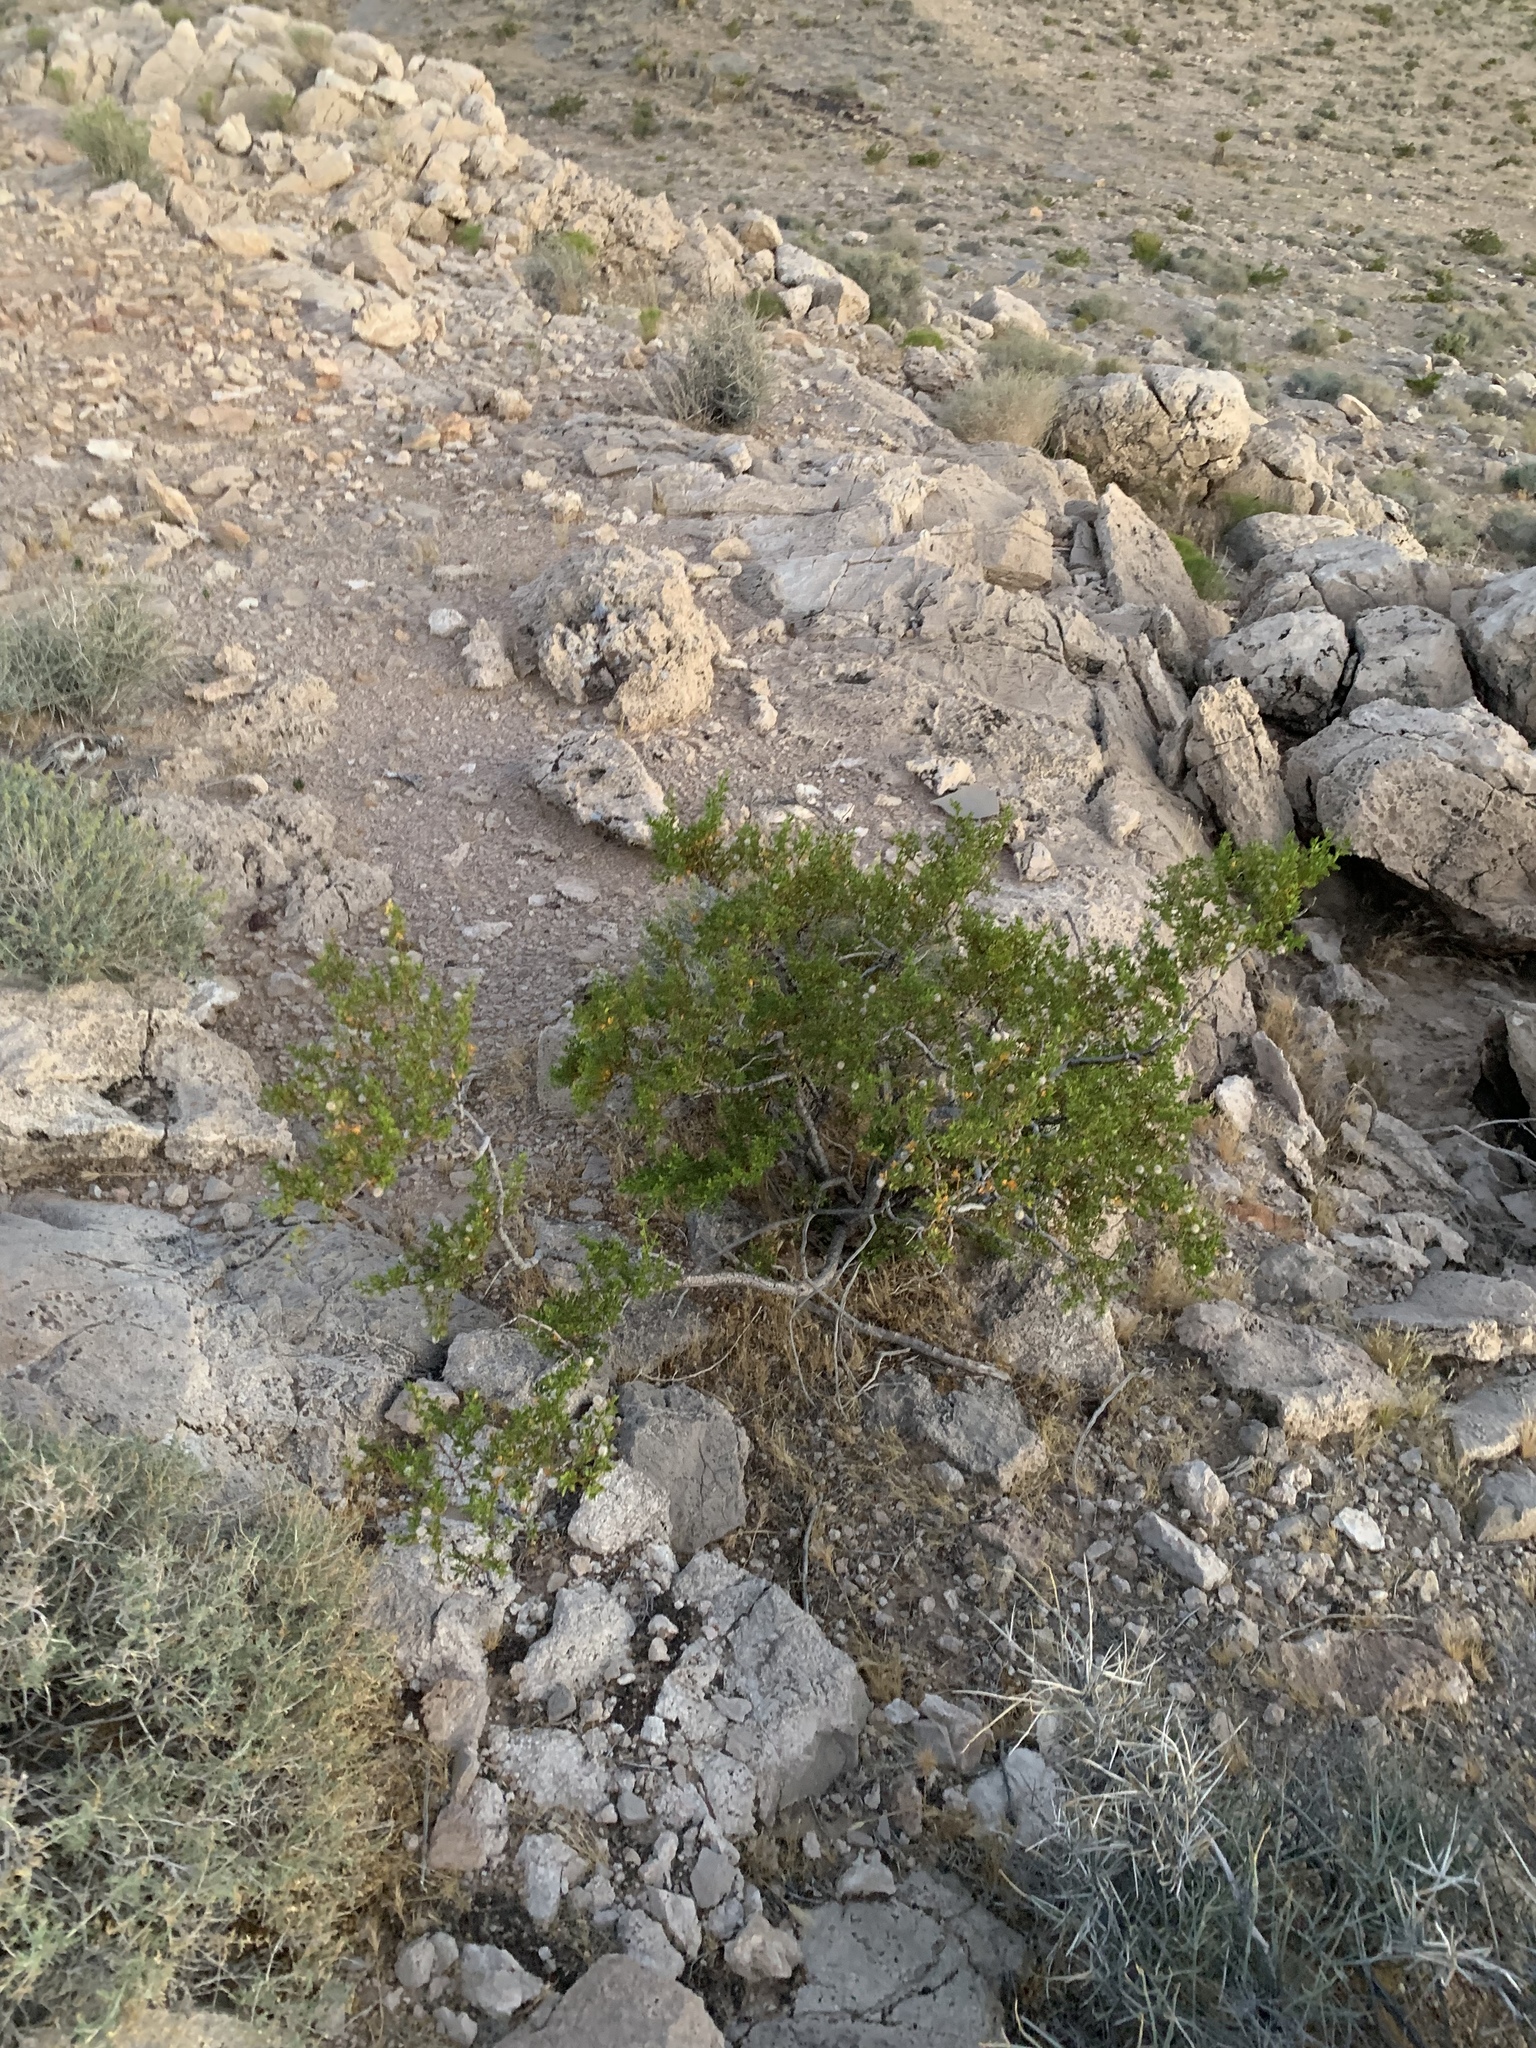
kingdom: Plantae
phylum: Tracheophyta
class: Magnoliopsida
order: Zygophyllales
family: Zygophyllaceae
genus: Larrea
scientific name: Larrea tridentata
